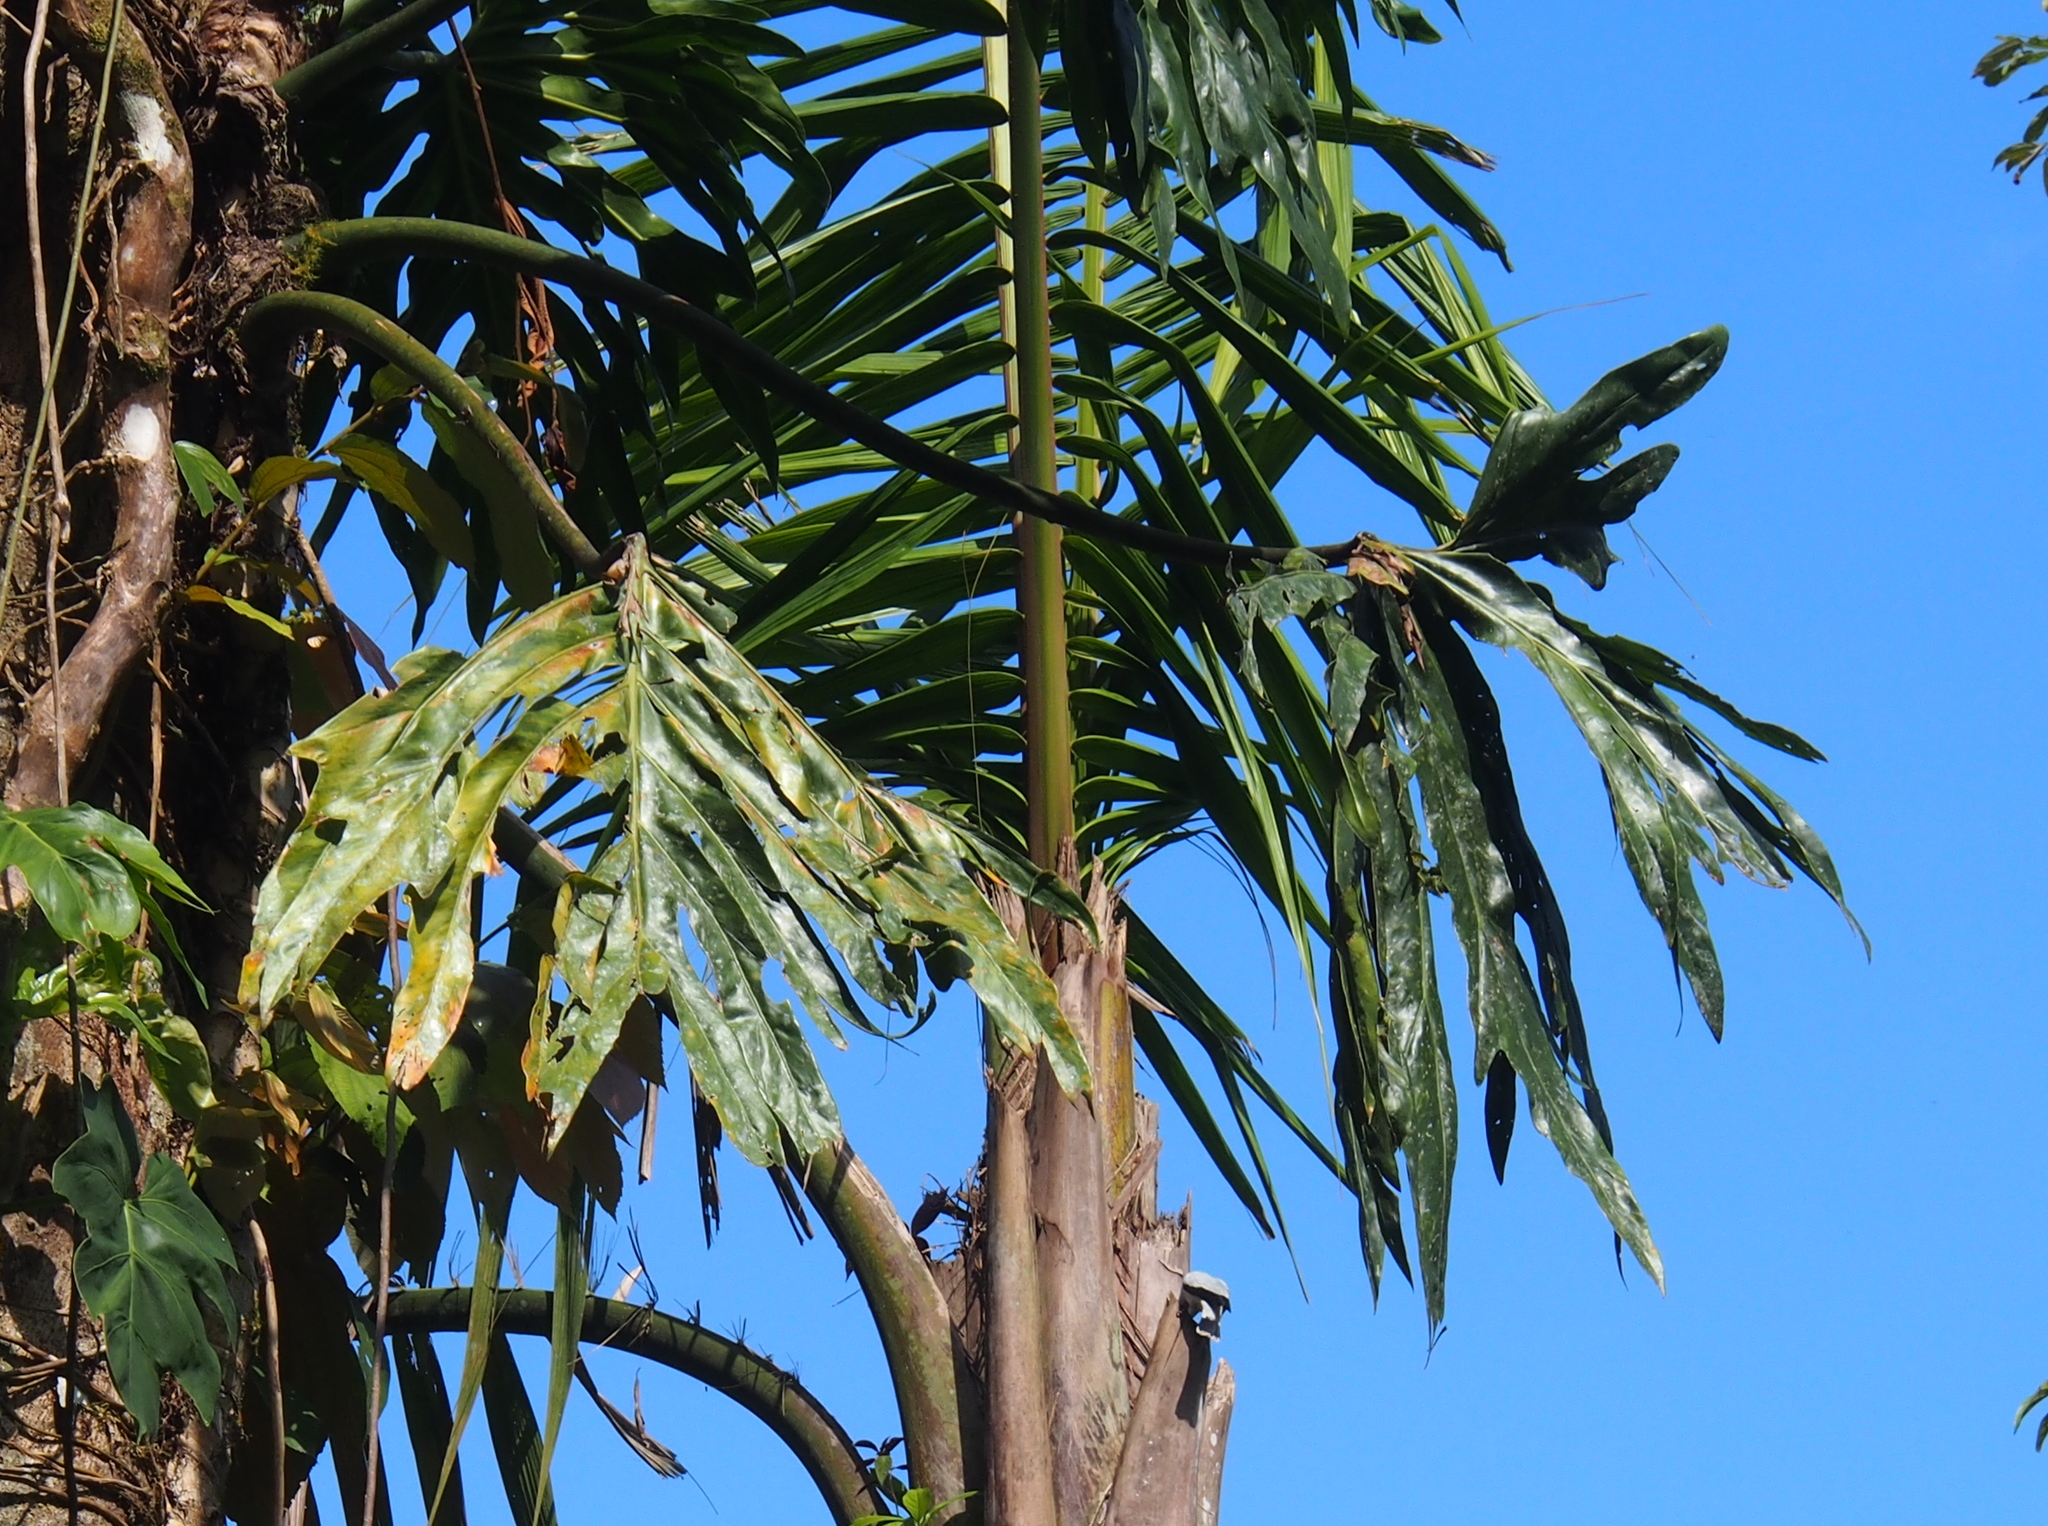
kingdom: Plantae
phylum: Tracheophyta
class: Liliopsida
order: Alismatales
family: Araceae
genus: Philodendron
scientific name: Philodendron radiatum
